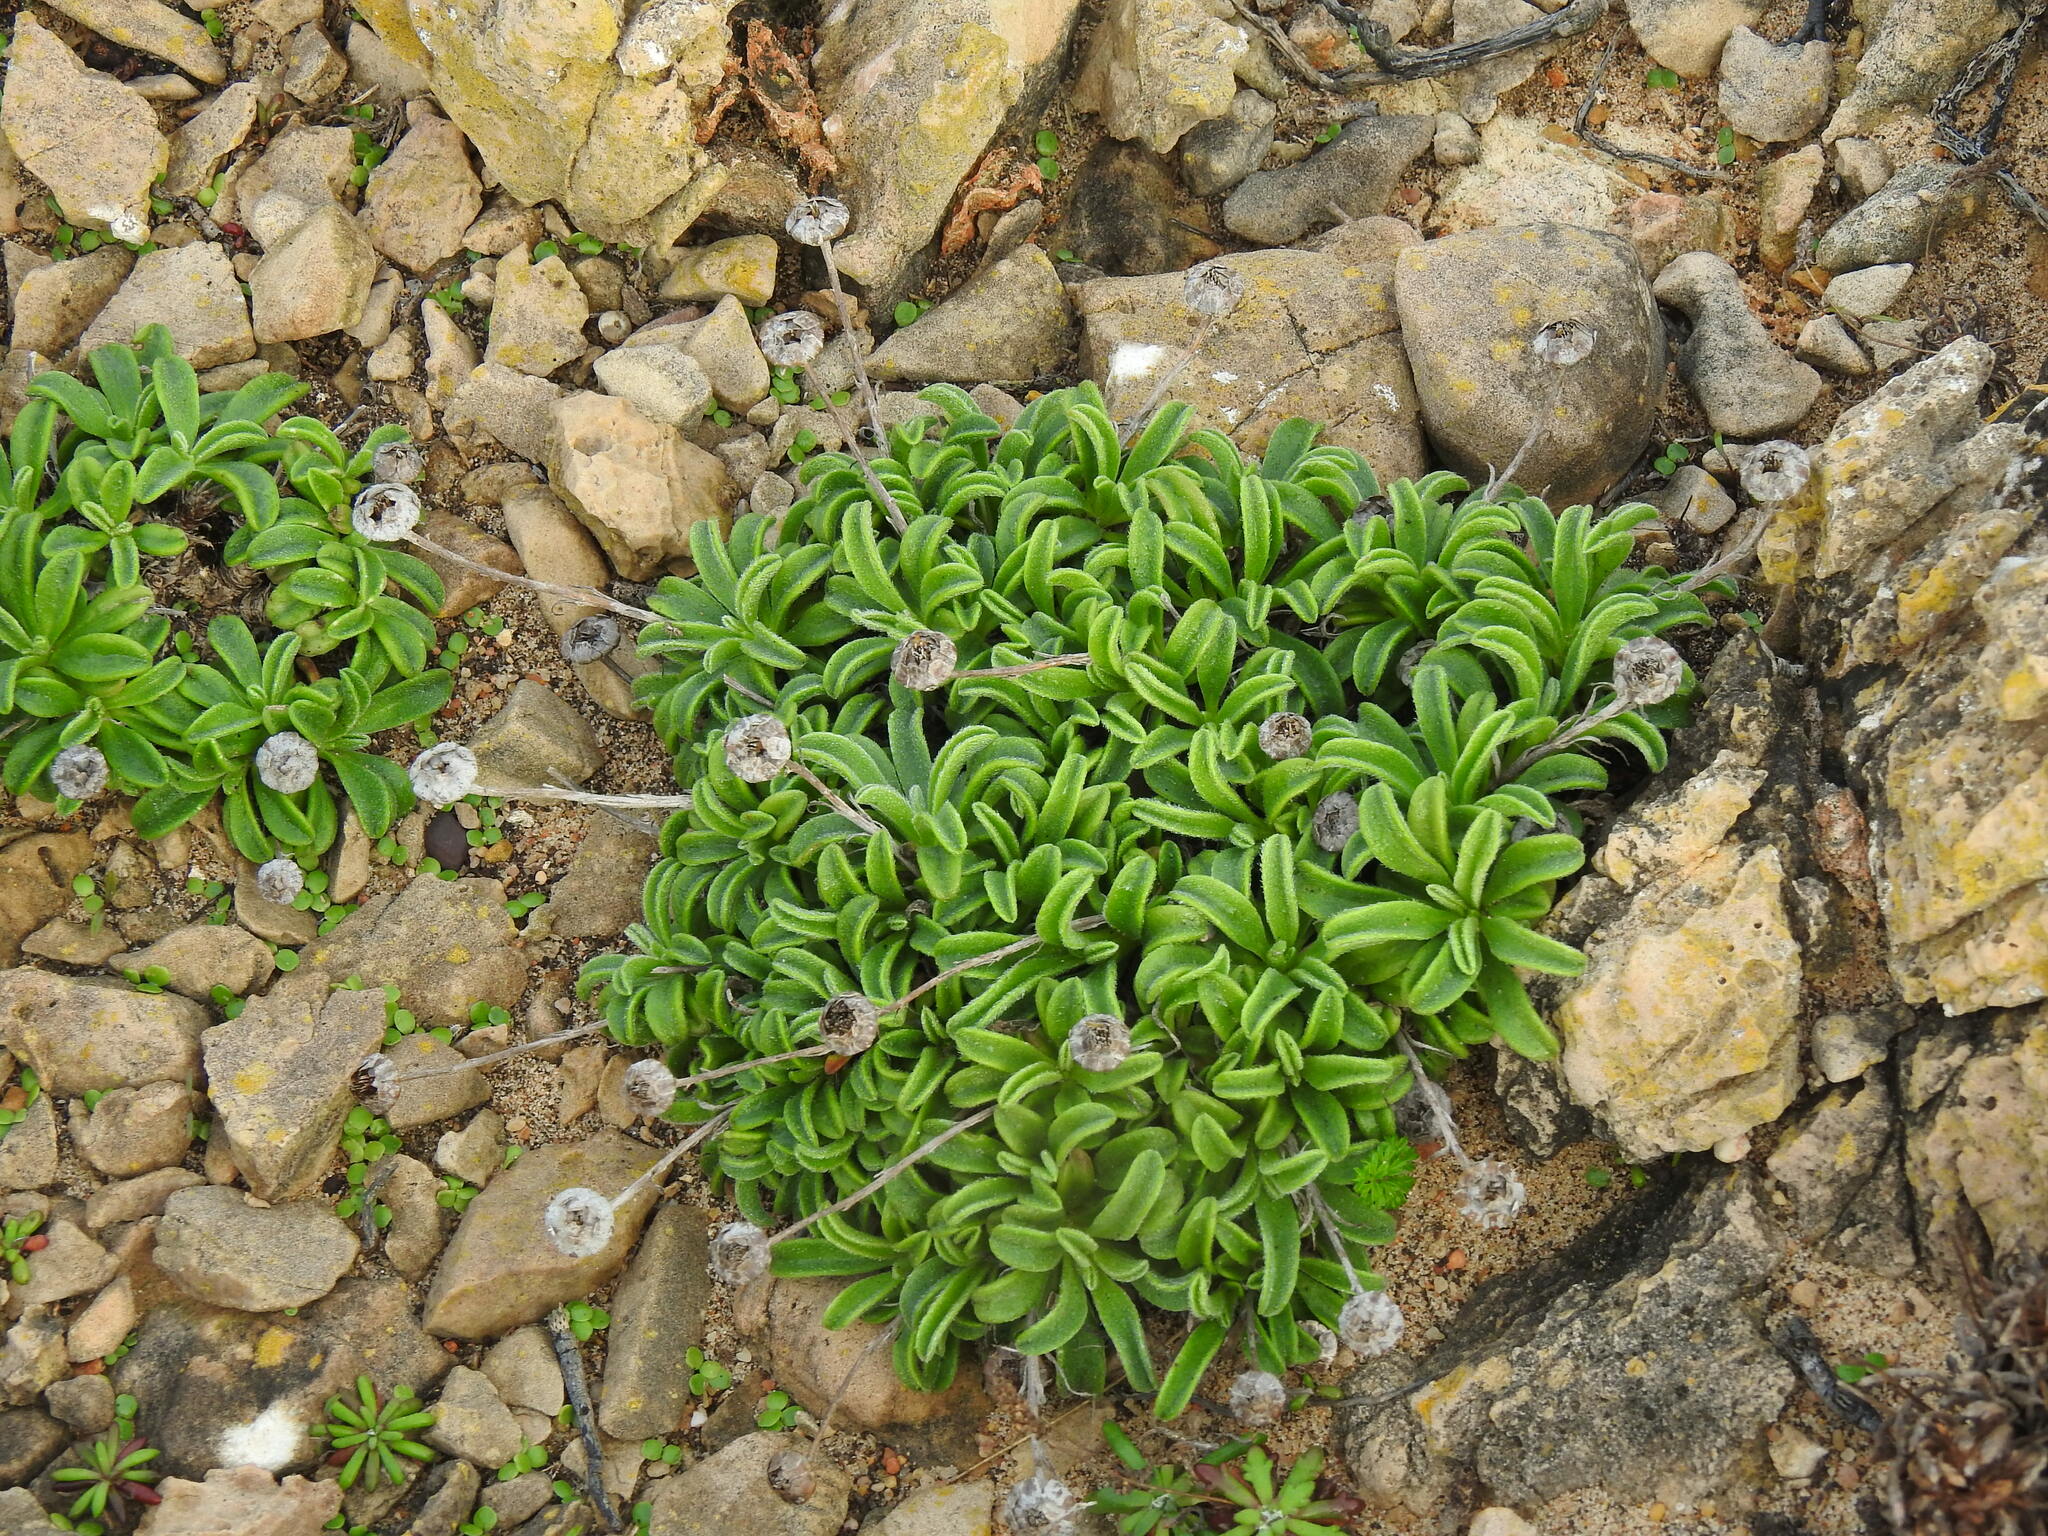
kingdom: Plantae
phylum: Tracheophyta
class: Magnoliopsida
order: Asterales
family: Asteraceae
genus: Pallenis
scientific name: Pallenis maritima
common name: Golden coin daisy
